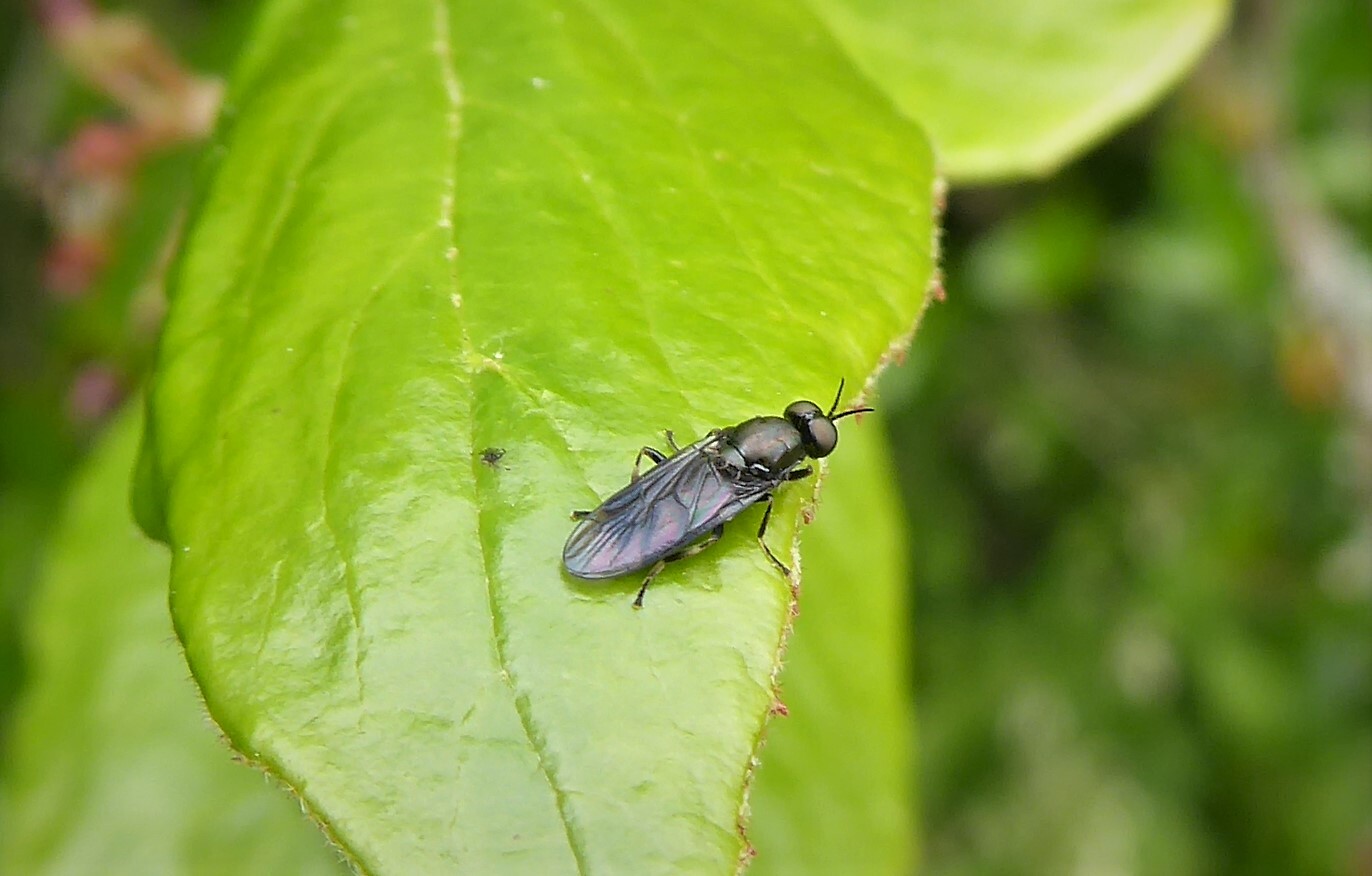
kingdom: Animalia
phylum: Arthropoda
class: Insecta
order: Diptera
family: Stratiomyidae
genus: Zealandoberis
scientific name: Zealandoberis violacea
